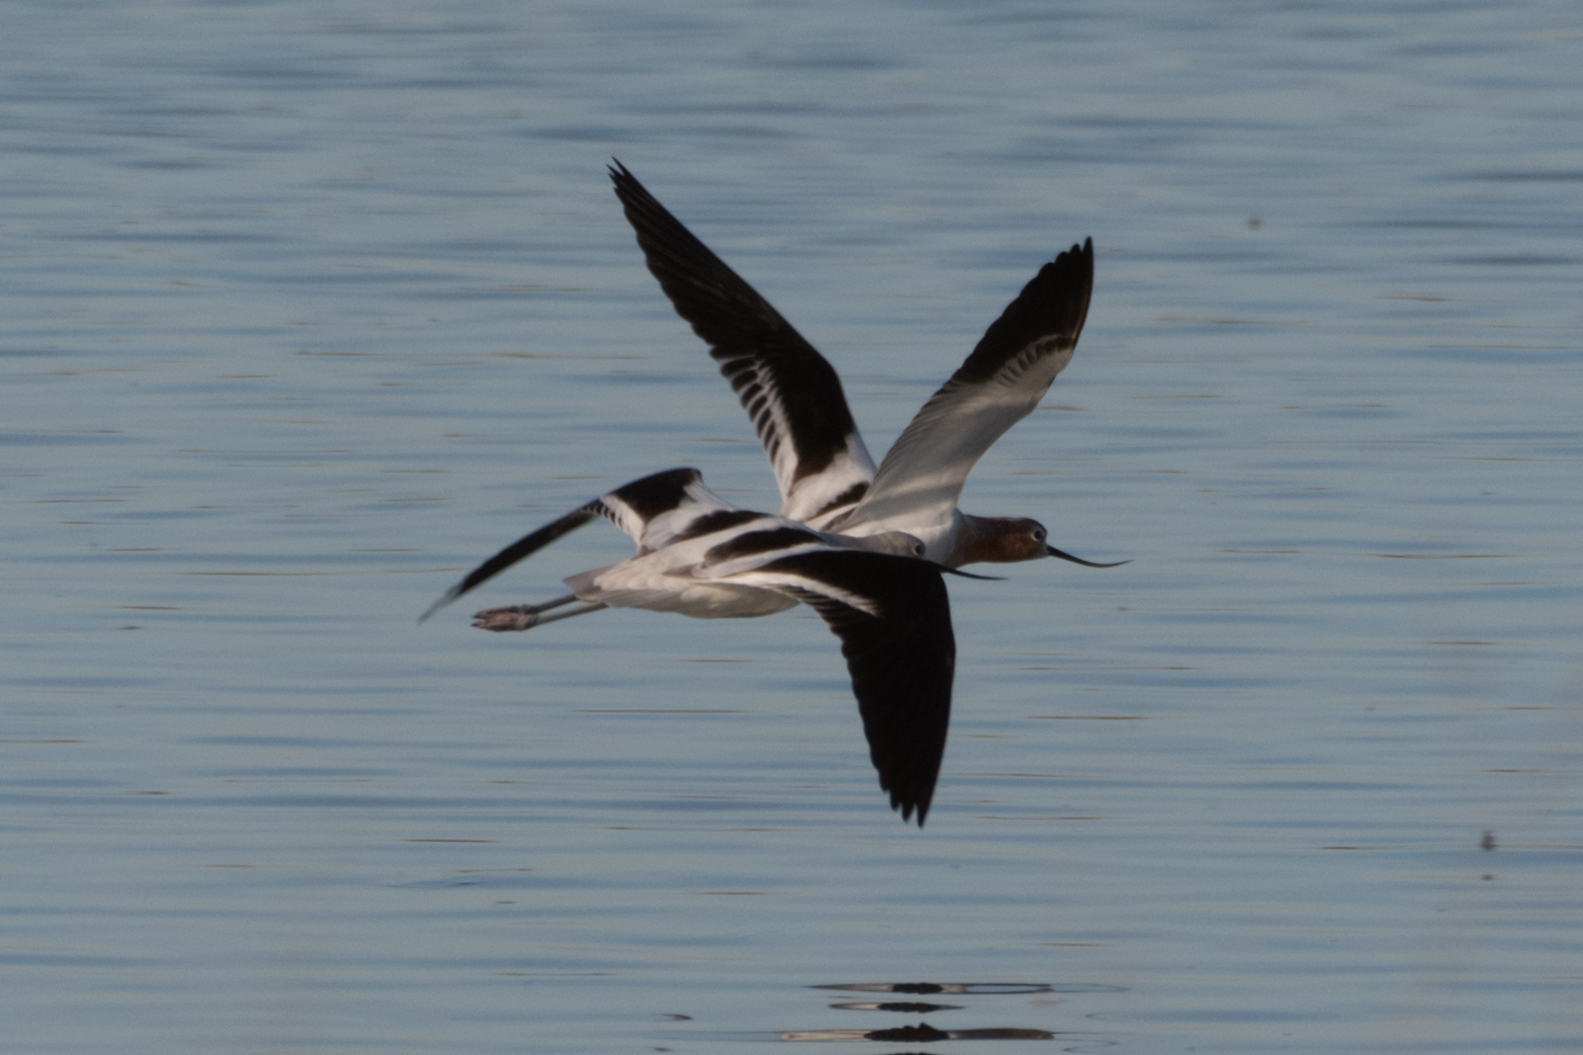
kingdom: Animalia
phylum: Chordata
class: Aves
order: Charadriiformes
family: Recurvirostridae
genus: Recurvirostra
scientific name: Recurvirostra americana
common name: American avocet
